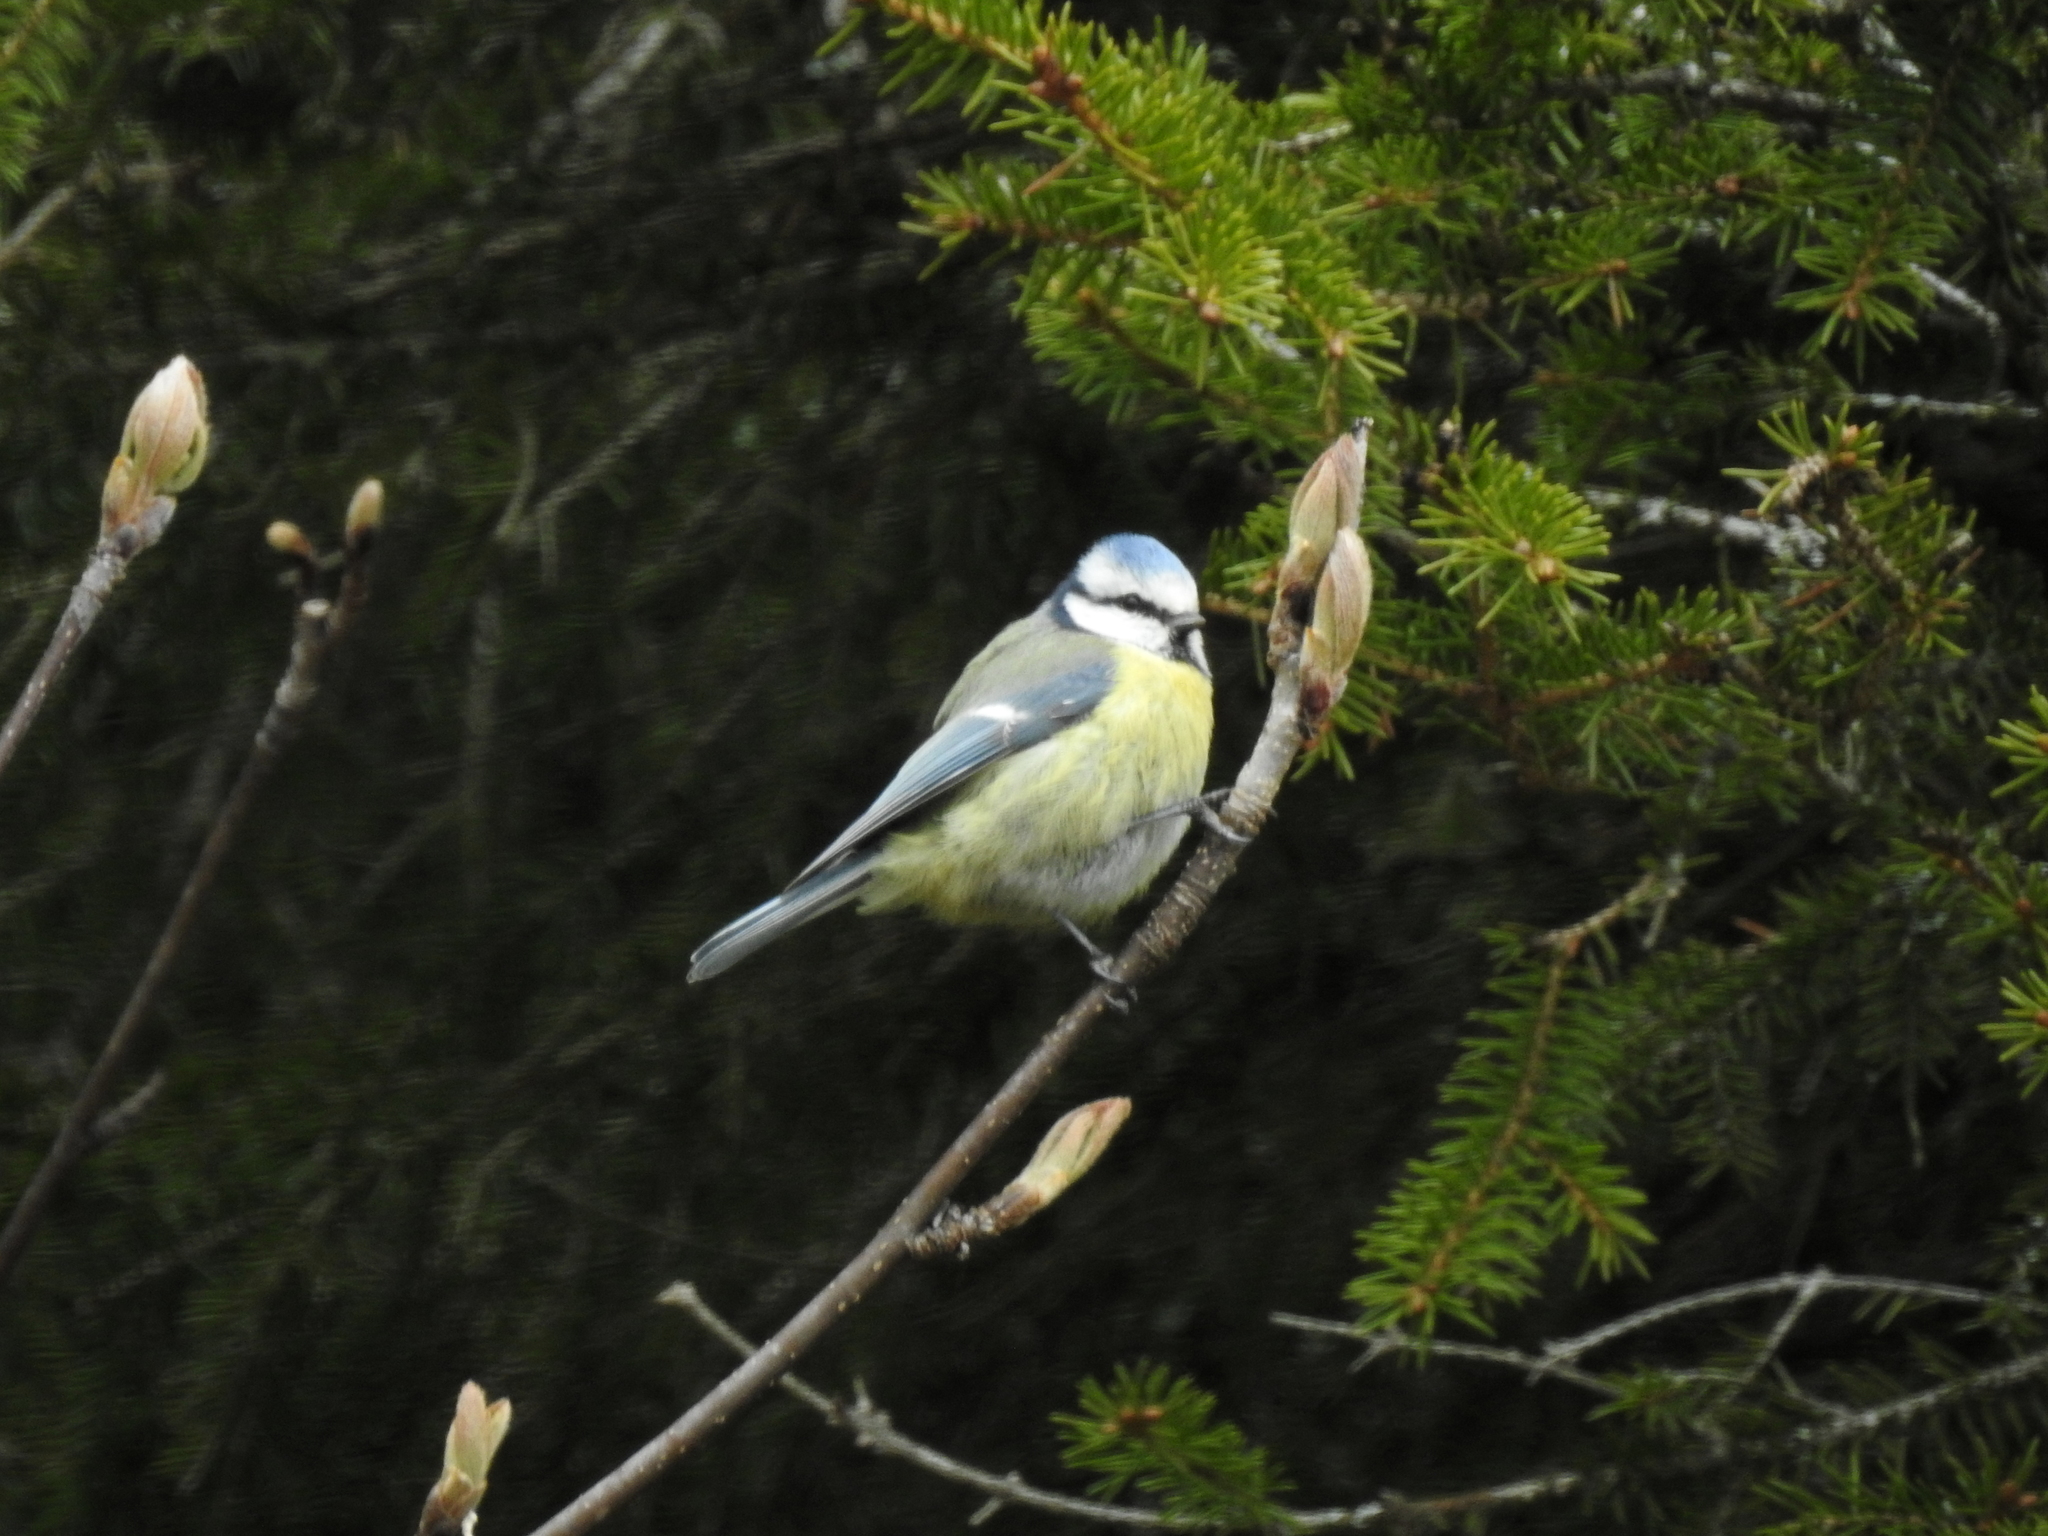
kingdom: Animalia
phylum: Chordata
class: Aves
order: Passeriformes
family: Paridae
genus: Cyanistes
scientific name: Cyanistes caeruleus
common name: Eurasian blue tit
